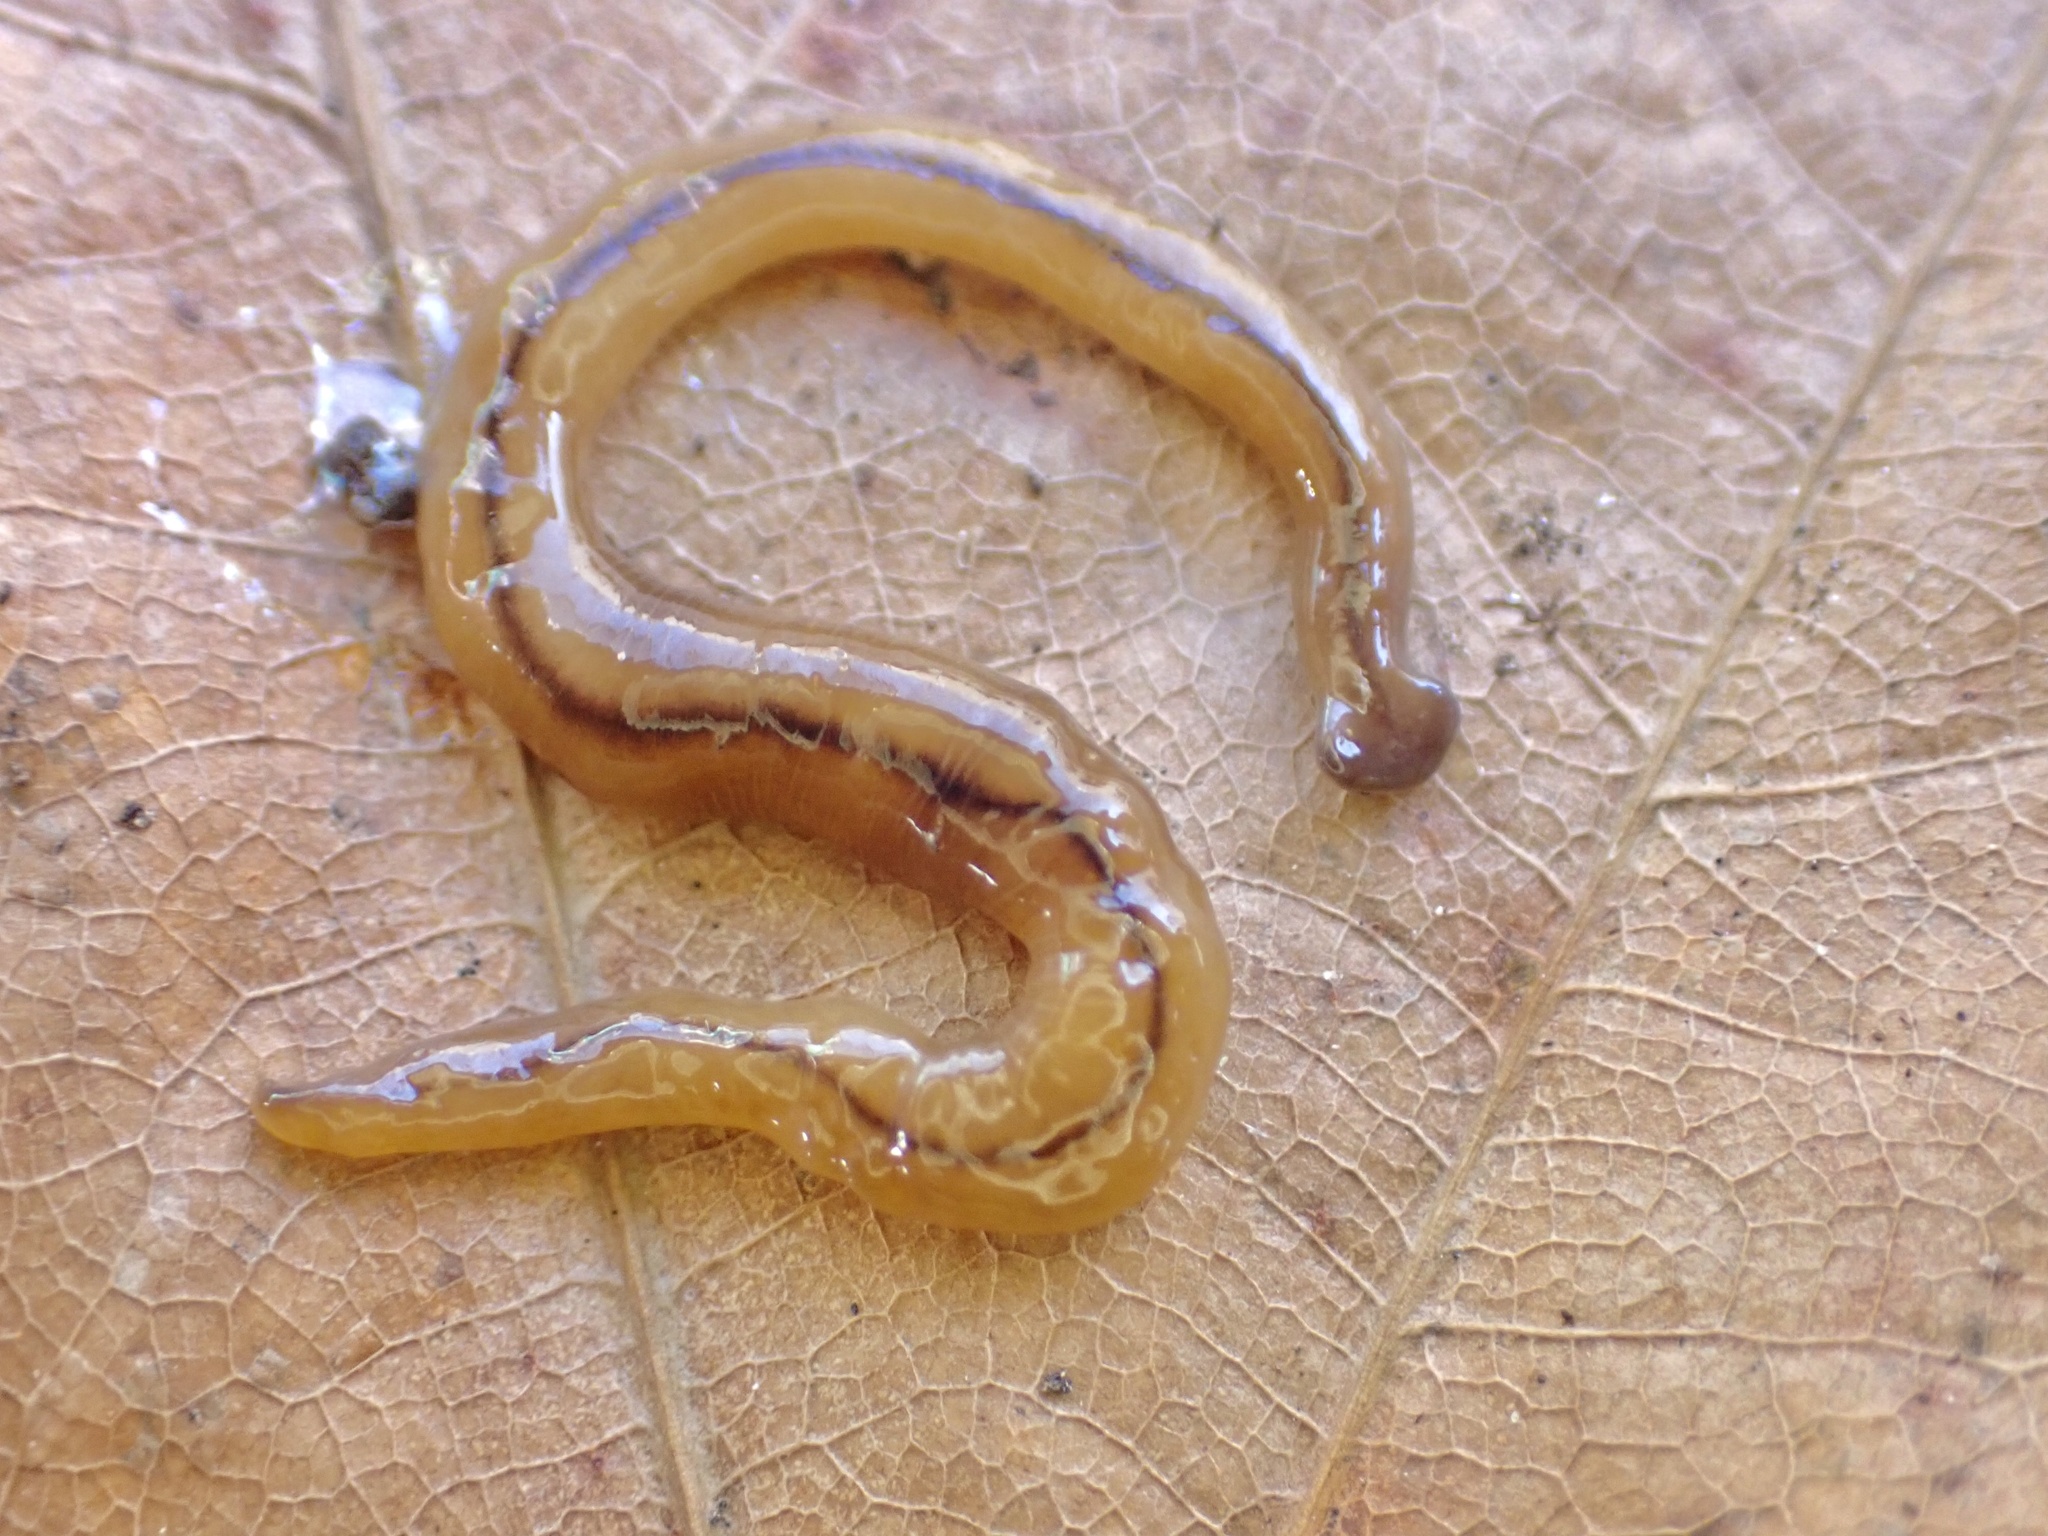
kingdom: Animalia
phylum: Platyhelminthes
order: Tricladida
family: Geoplanidae
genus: Bipalium
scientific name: Bipalium adventitium
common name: Land planarian
